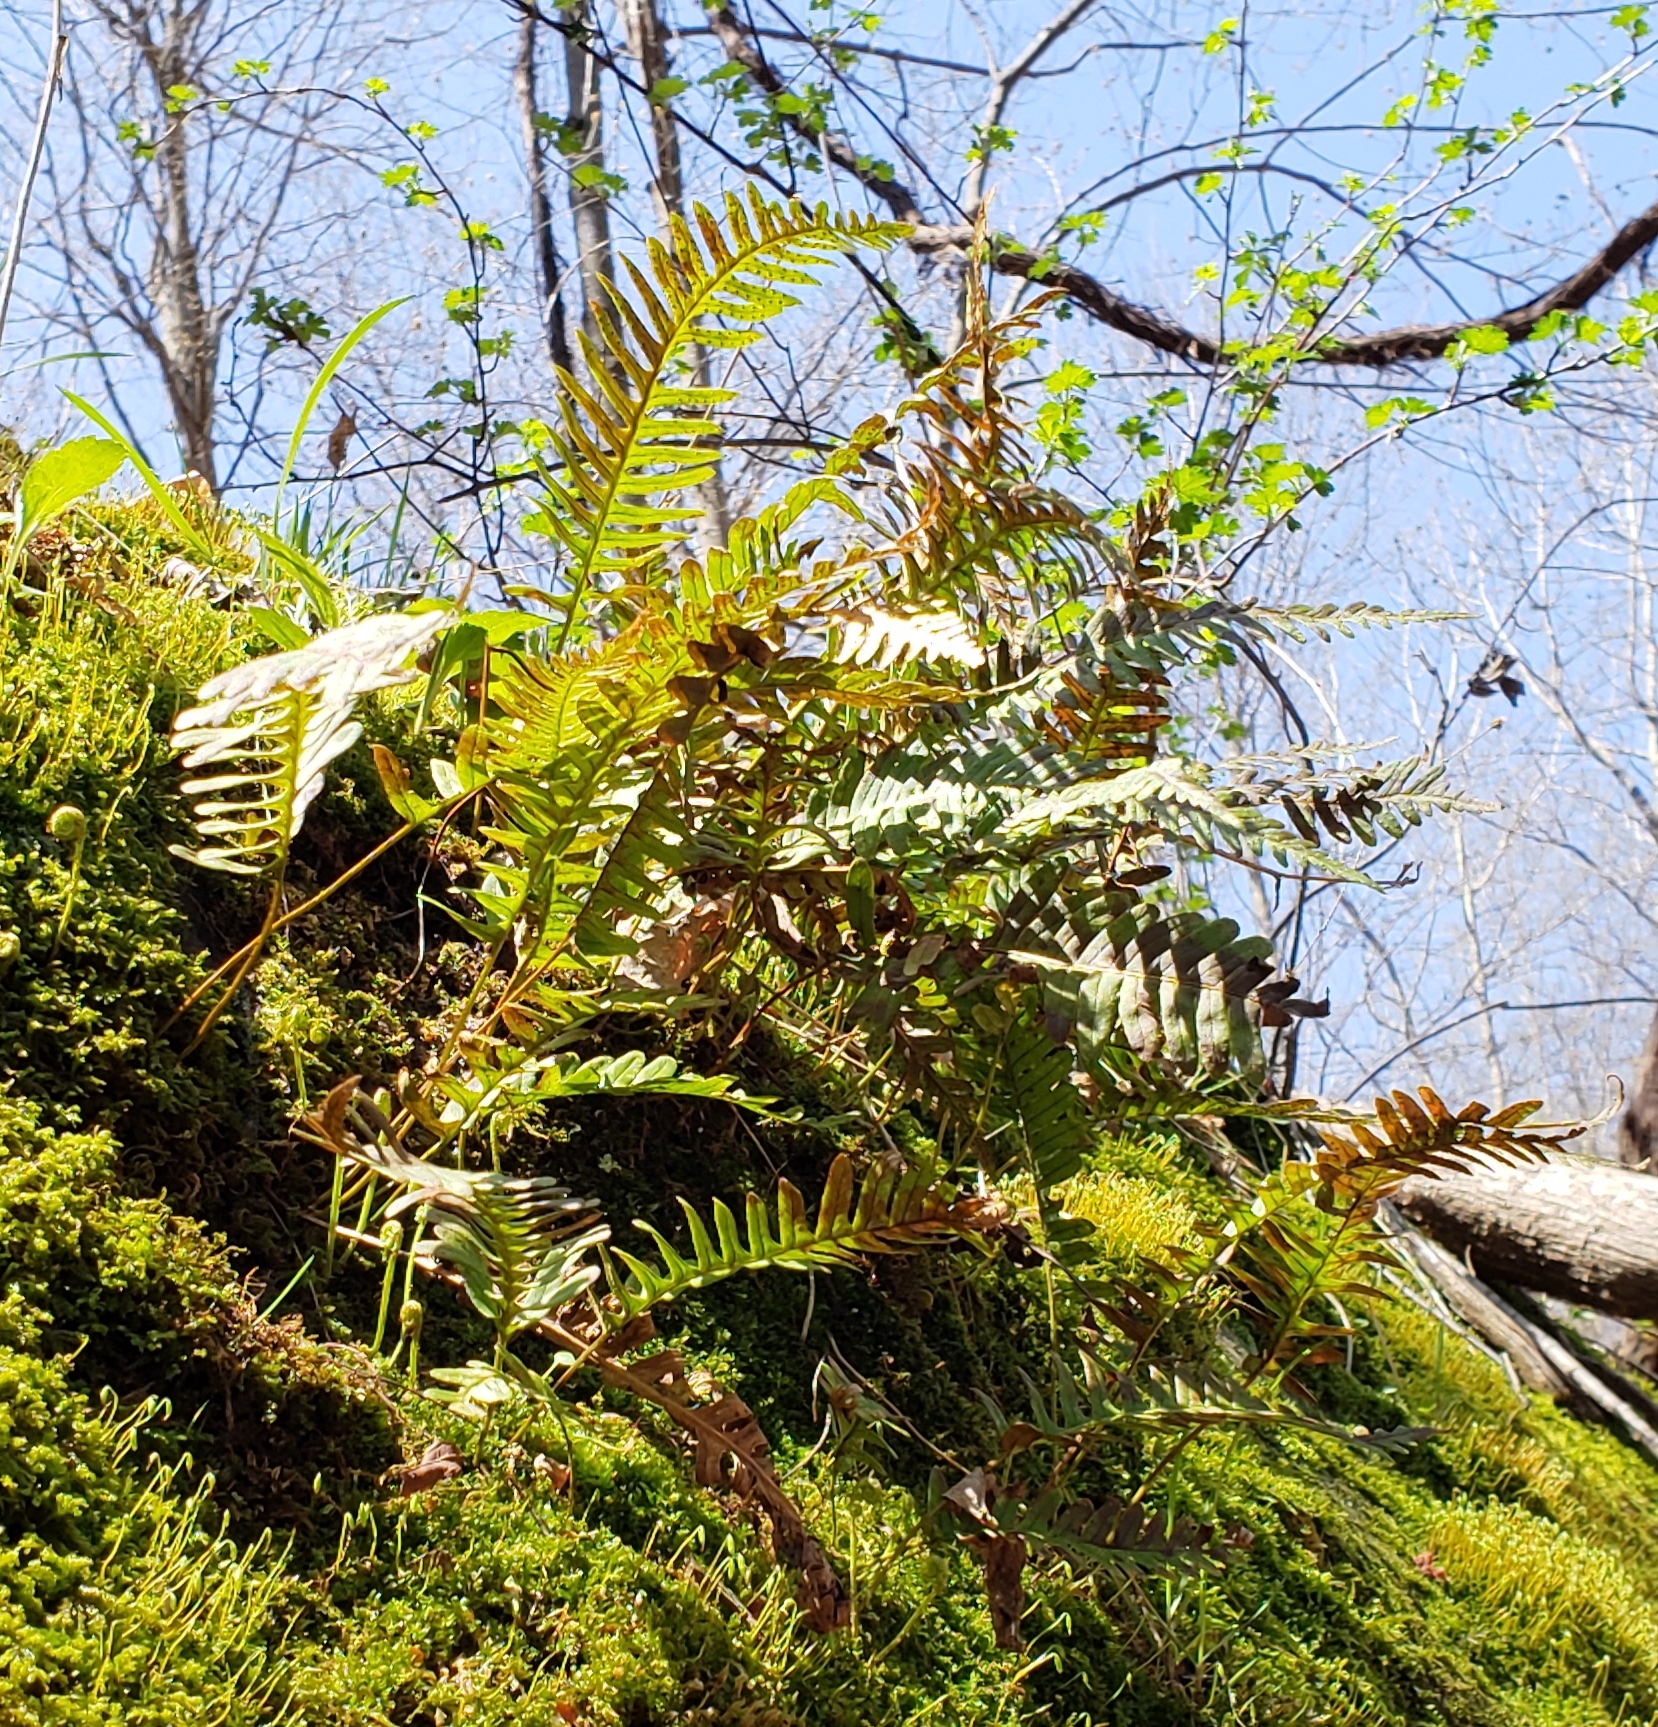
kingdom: Plantae
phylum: Tracheophyta
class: Polypodiopsida
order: Polypodiales
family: Polypodiaceae
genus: Polypodium
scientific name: Polypodium virginianum
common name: American wall fern
